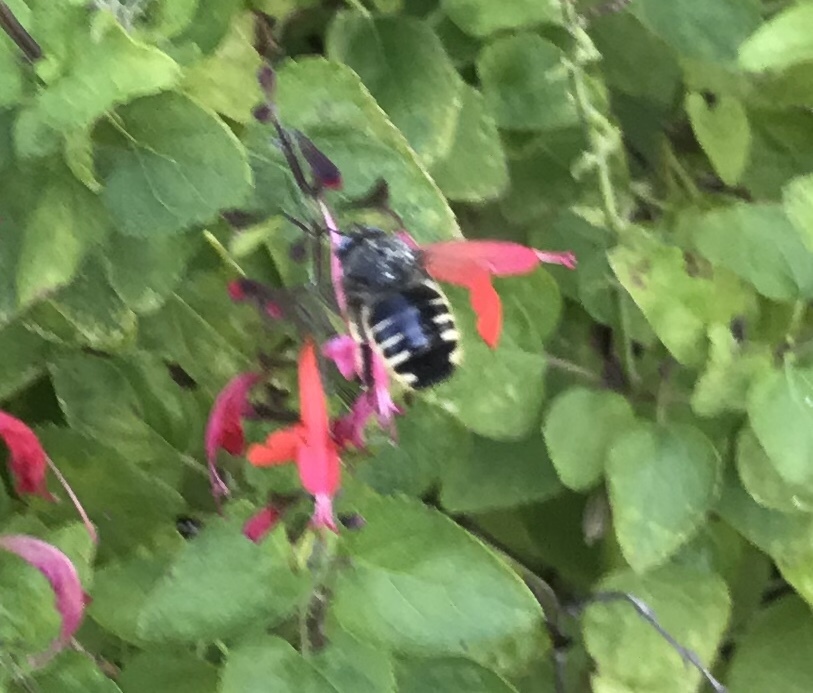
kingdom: Animalia
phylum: Arthropoda
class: Insecta
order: Hymenoptera
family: Apidae
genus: Xylocopa
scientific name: Xylocopa tabaniformis
